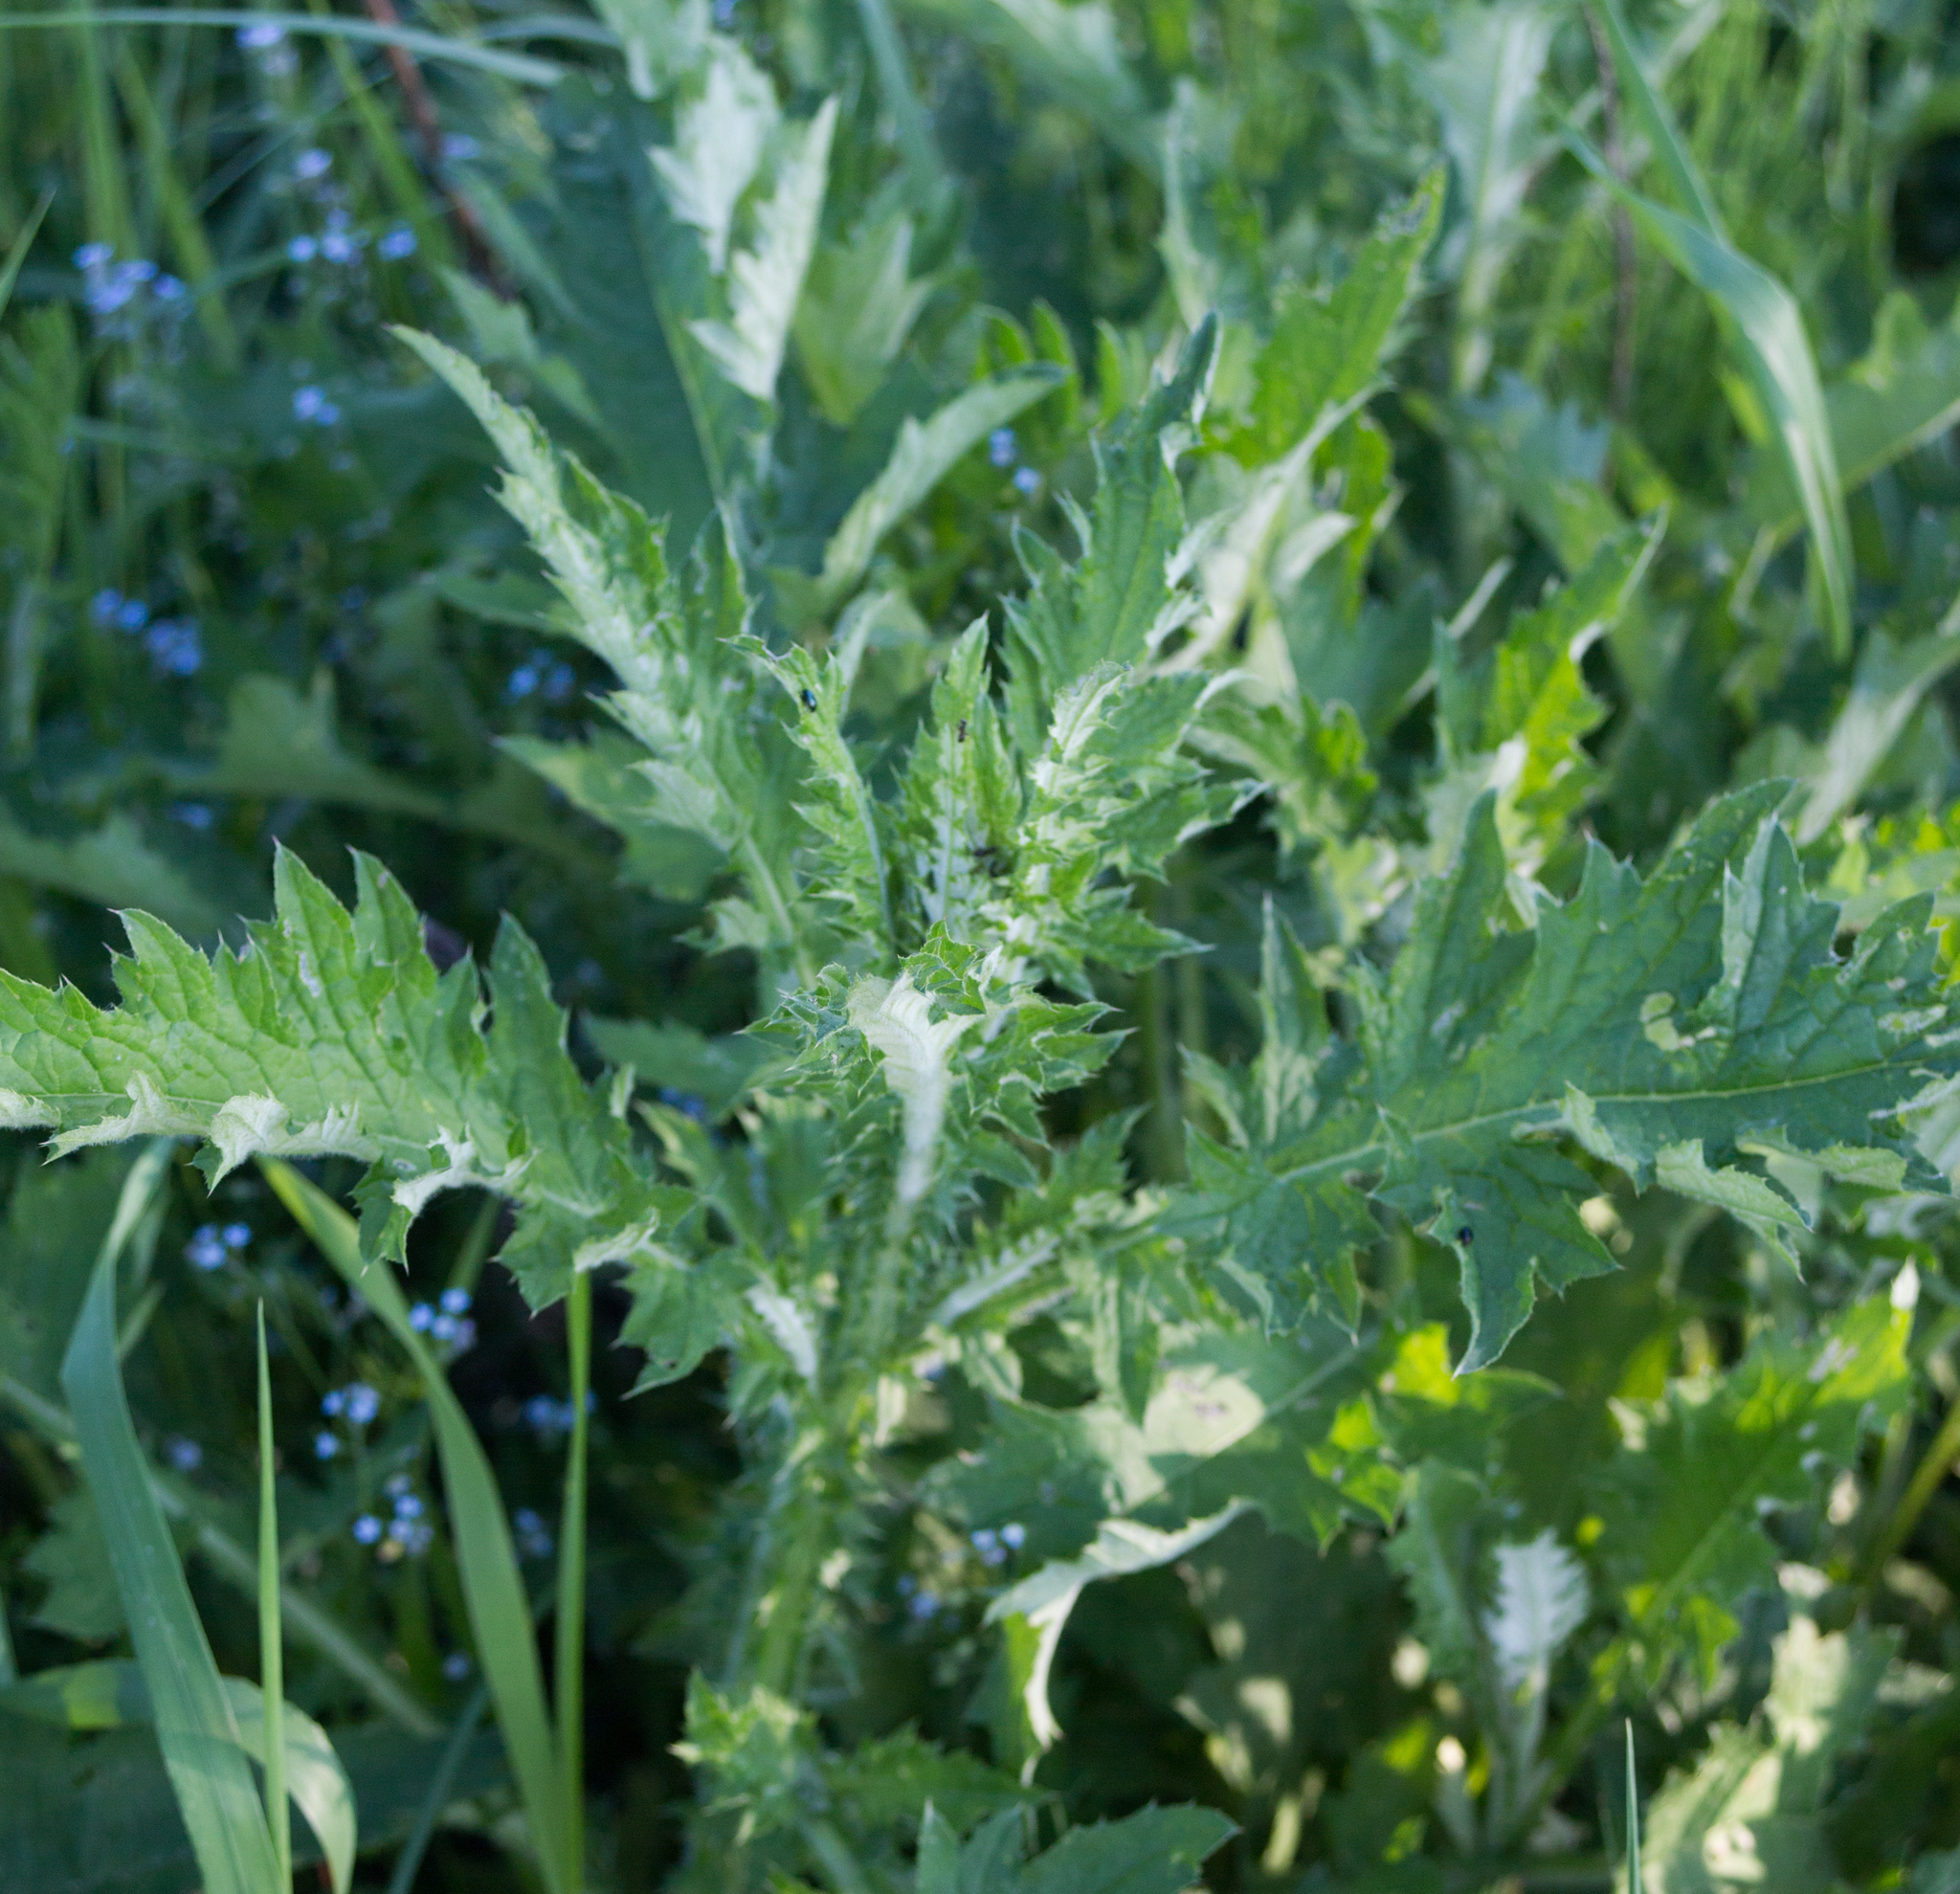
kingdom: Plantae
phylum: Tracheophyta
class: Magnoliopsida
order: Asterales
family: Asteraceae
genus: Carduus
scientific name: Carduus crispus
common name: Welted thistle
